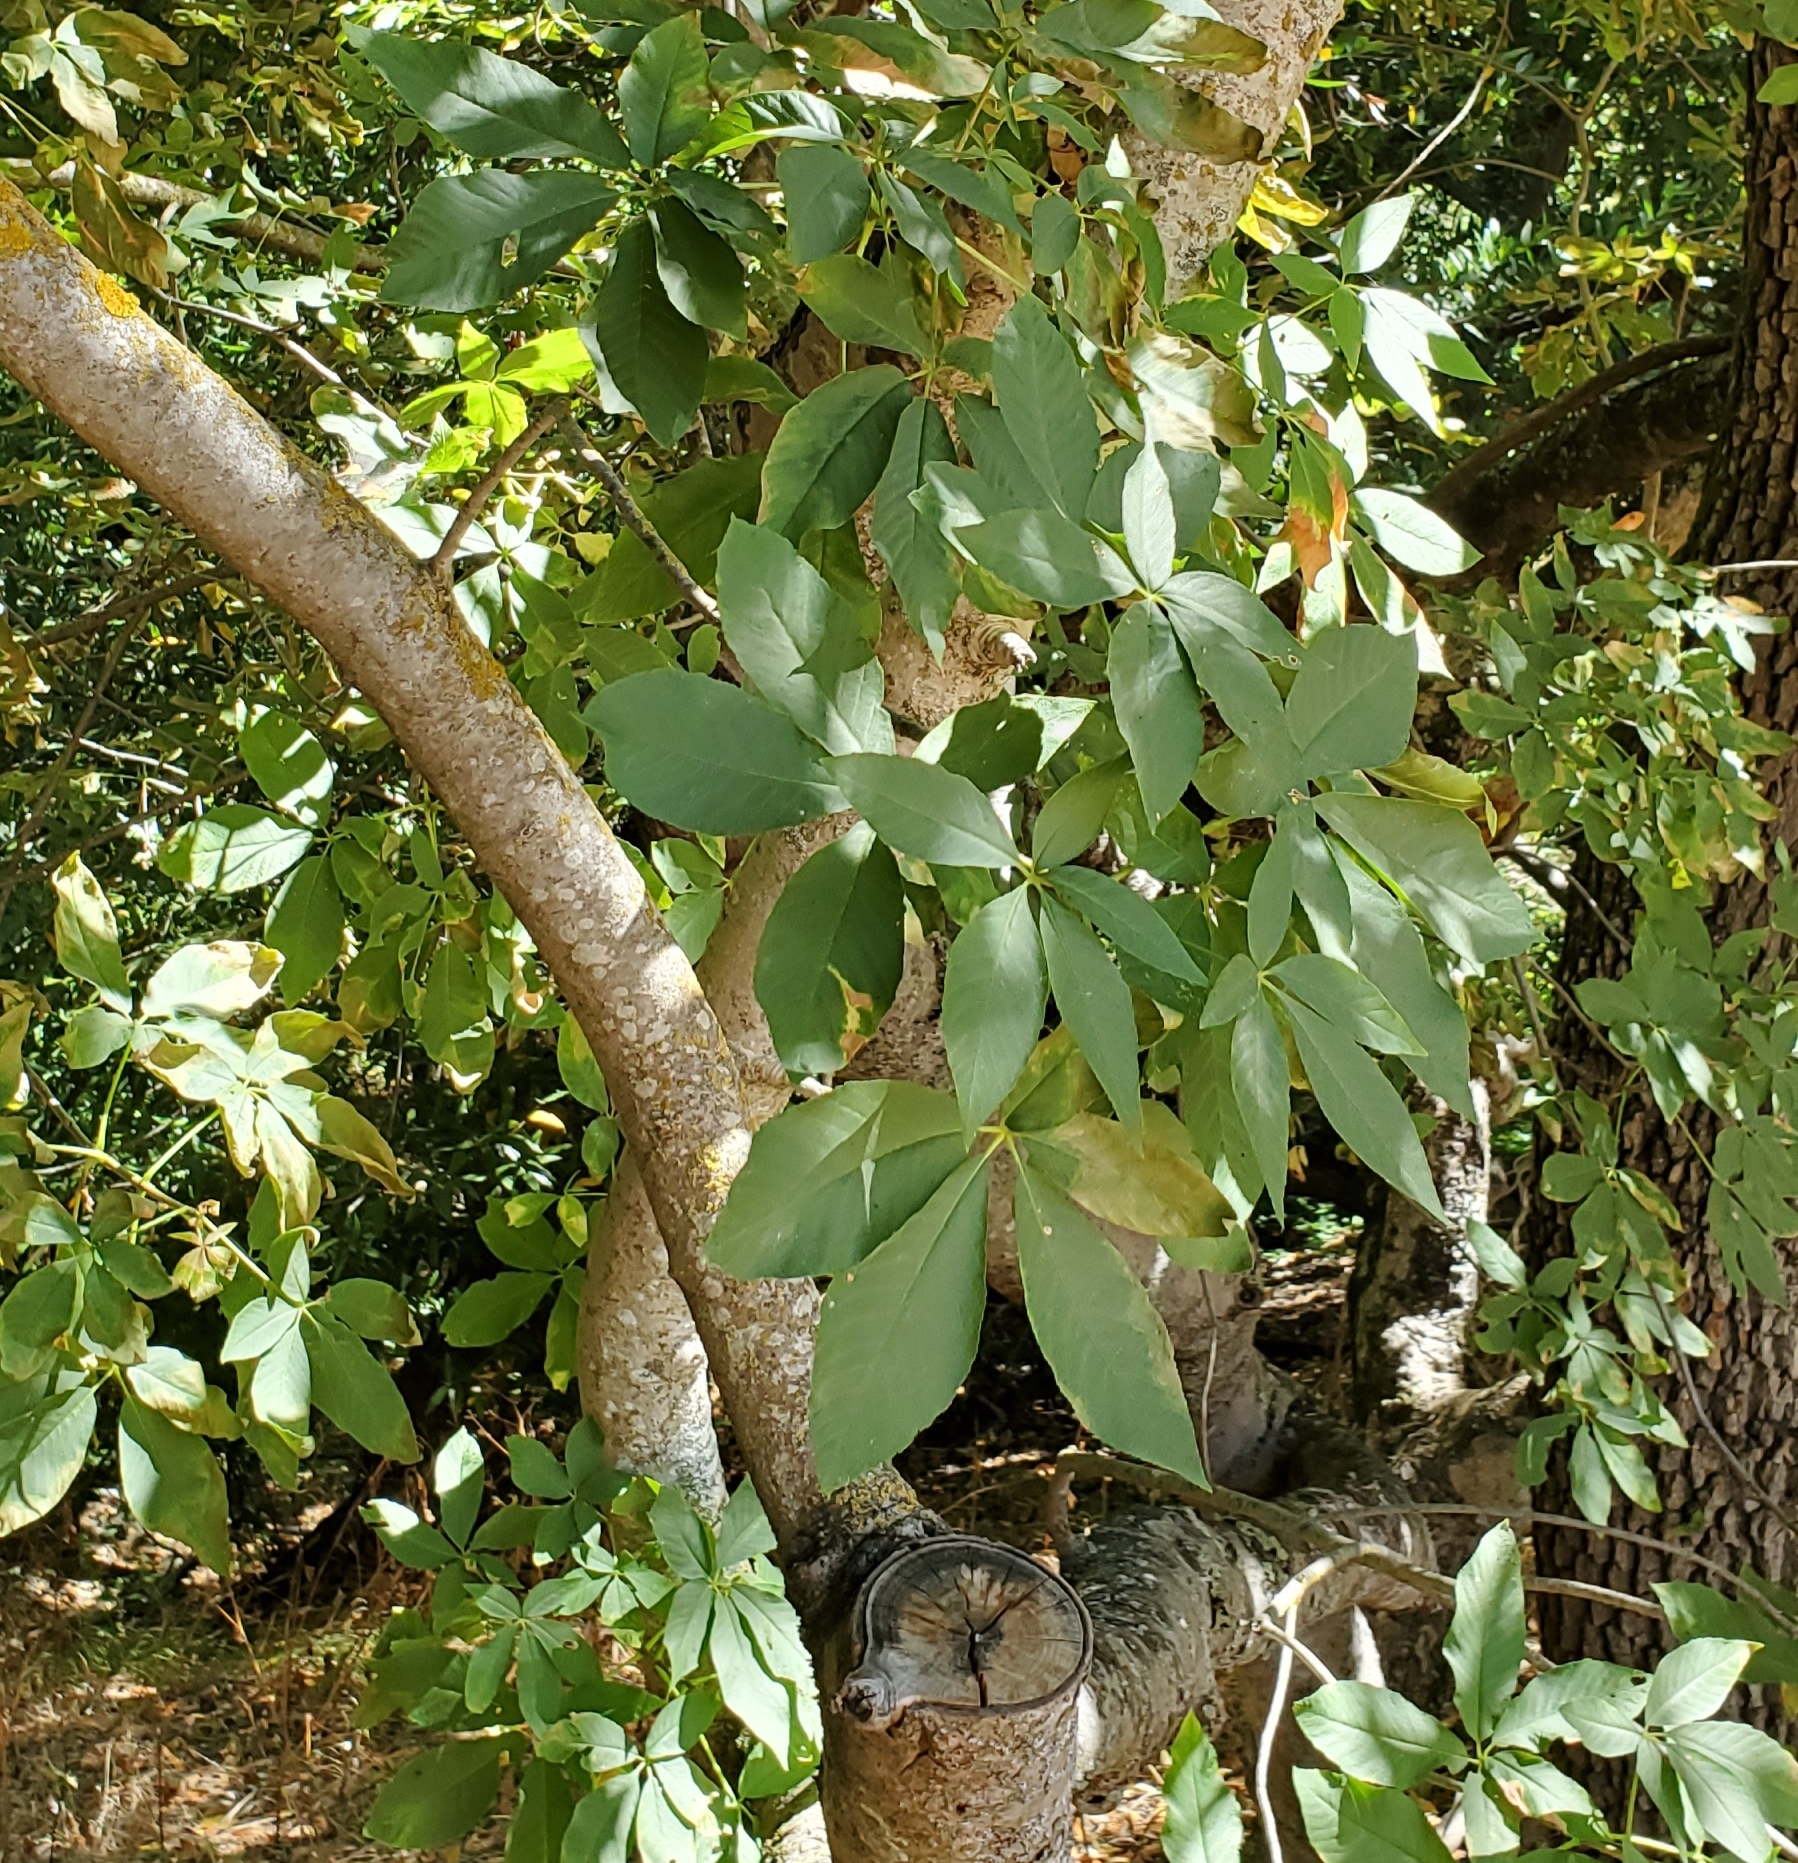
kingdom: Plantae
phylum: Tracheophyta
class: Magnoliopsida
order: Sapindales
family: Sapindaceae
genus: Aesculus
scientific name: Aesculus californica
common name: California buckeye
